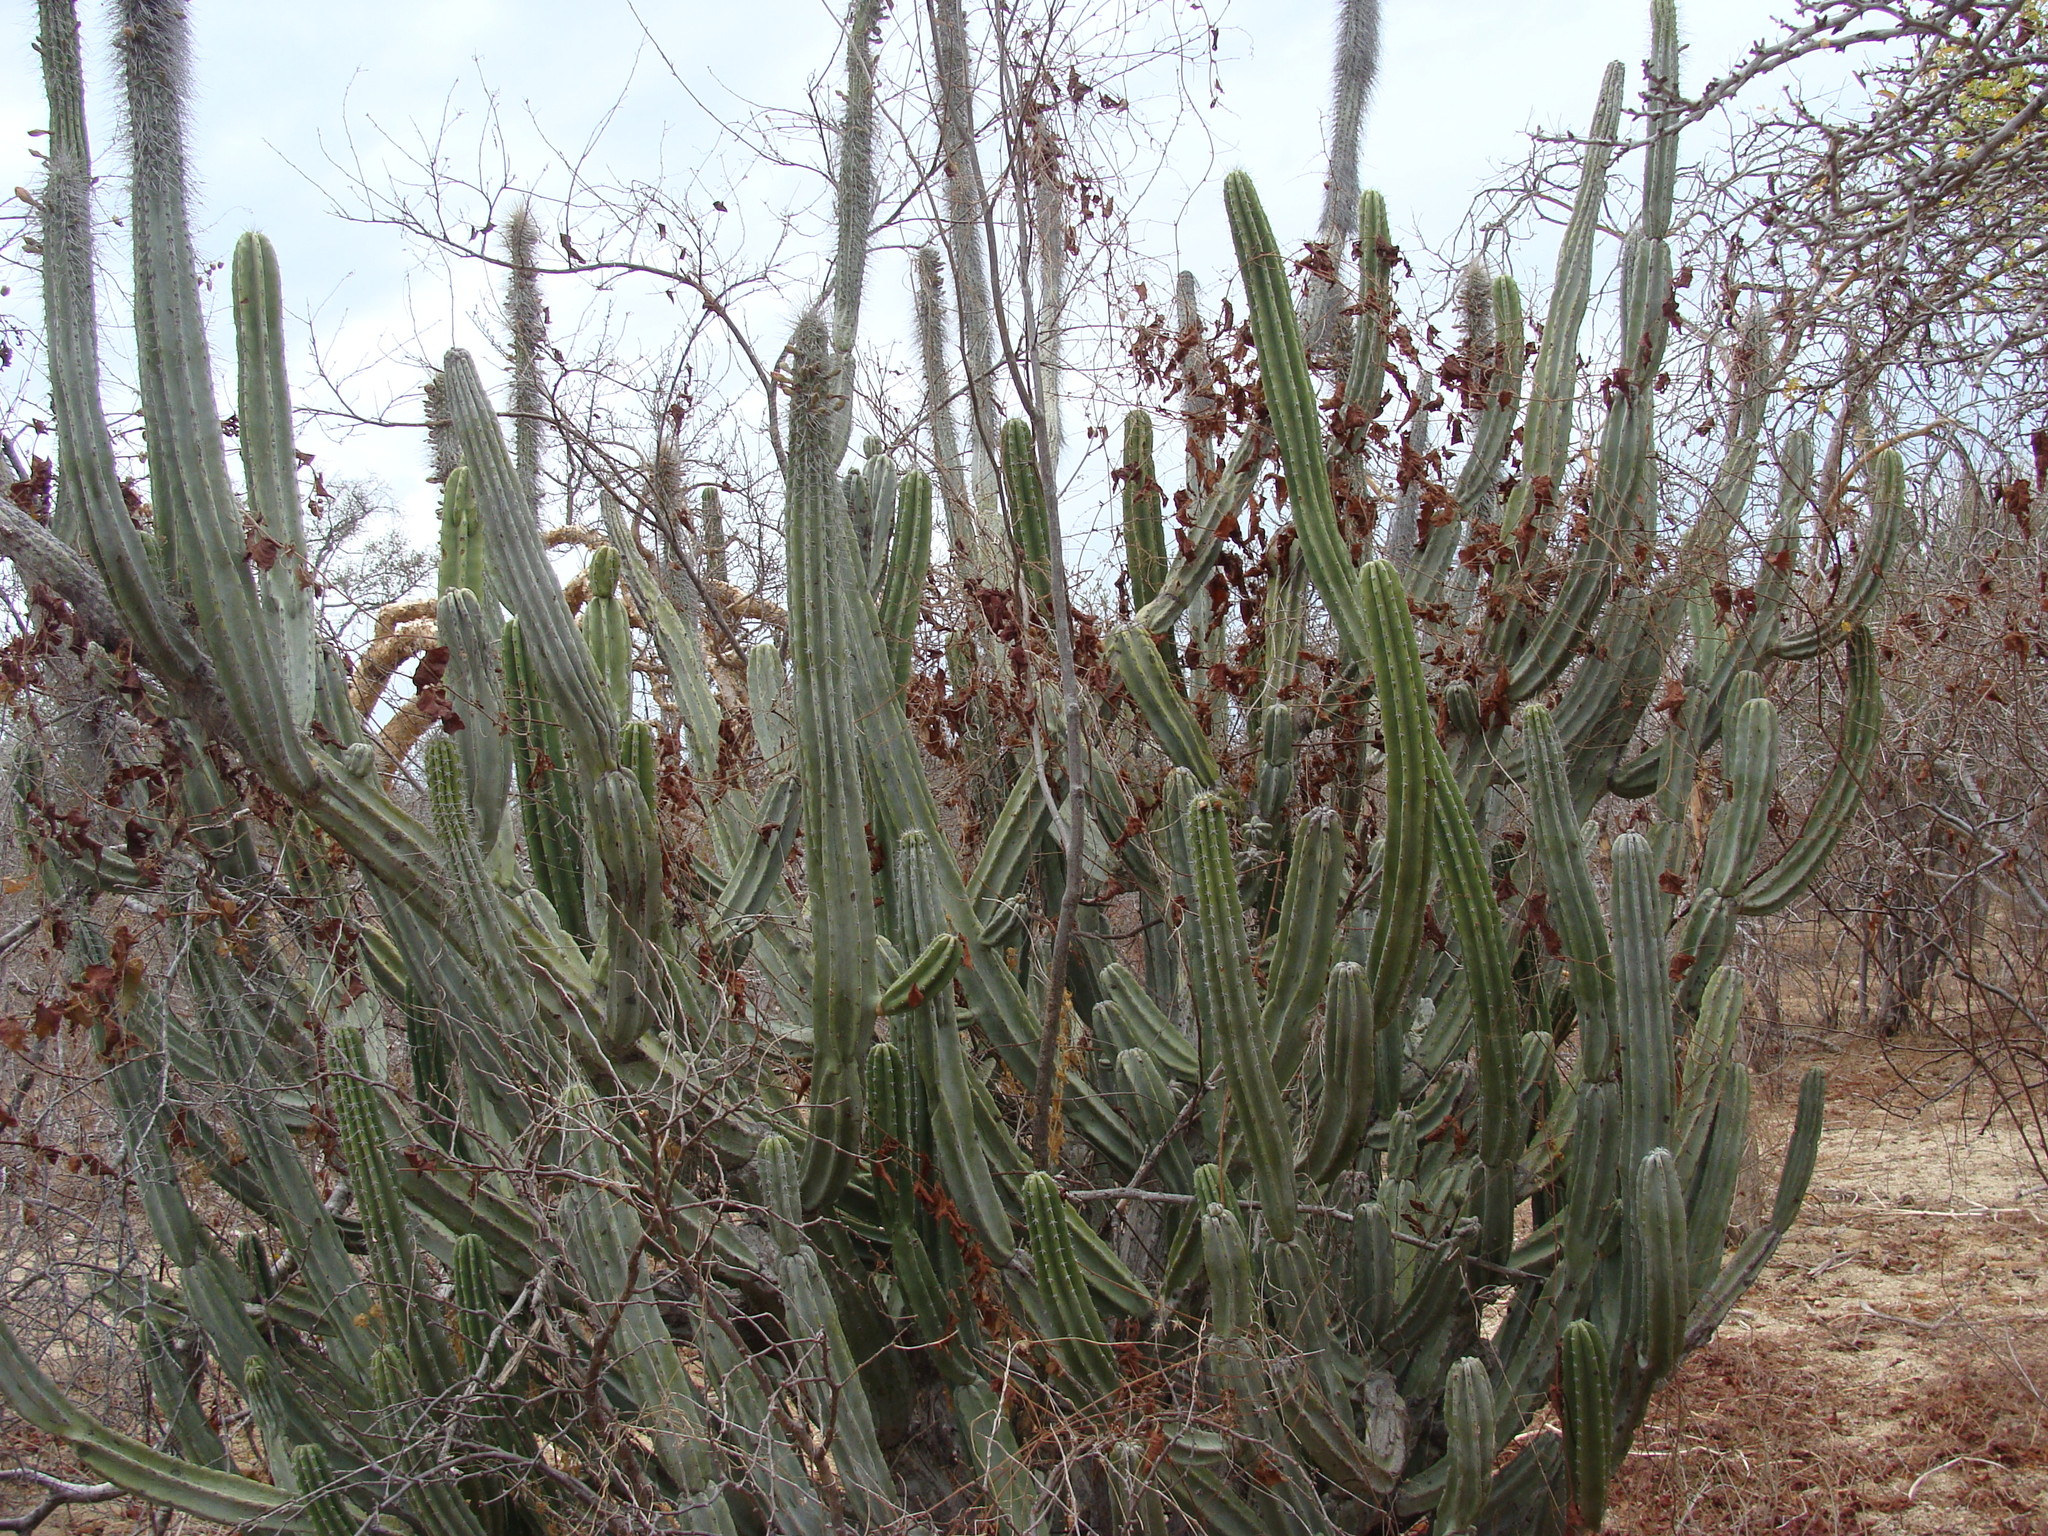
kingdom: Plantae
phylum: Tracheophyta
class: Magnoliopsida
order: Caryophyllales
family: Cactaceae
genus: Pachycereus
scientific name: Pachycereus schottii
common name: Senita cactus
